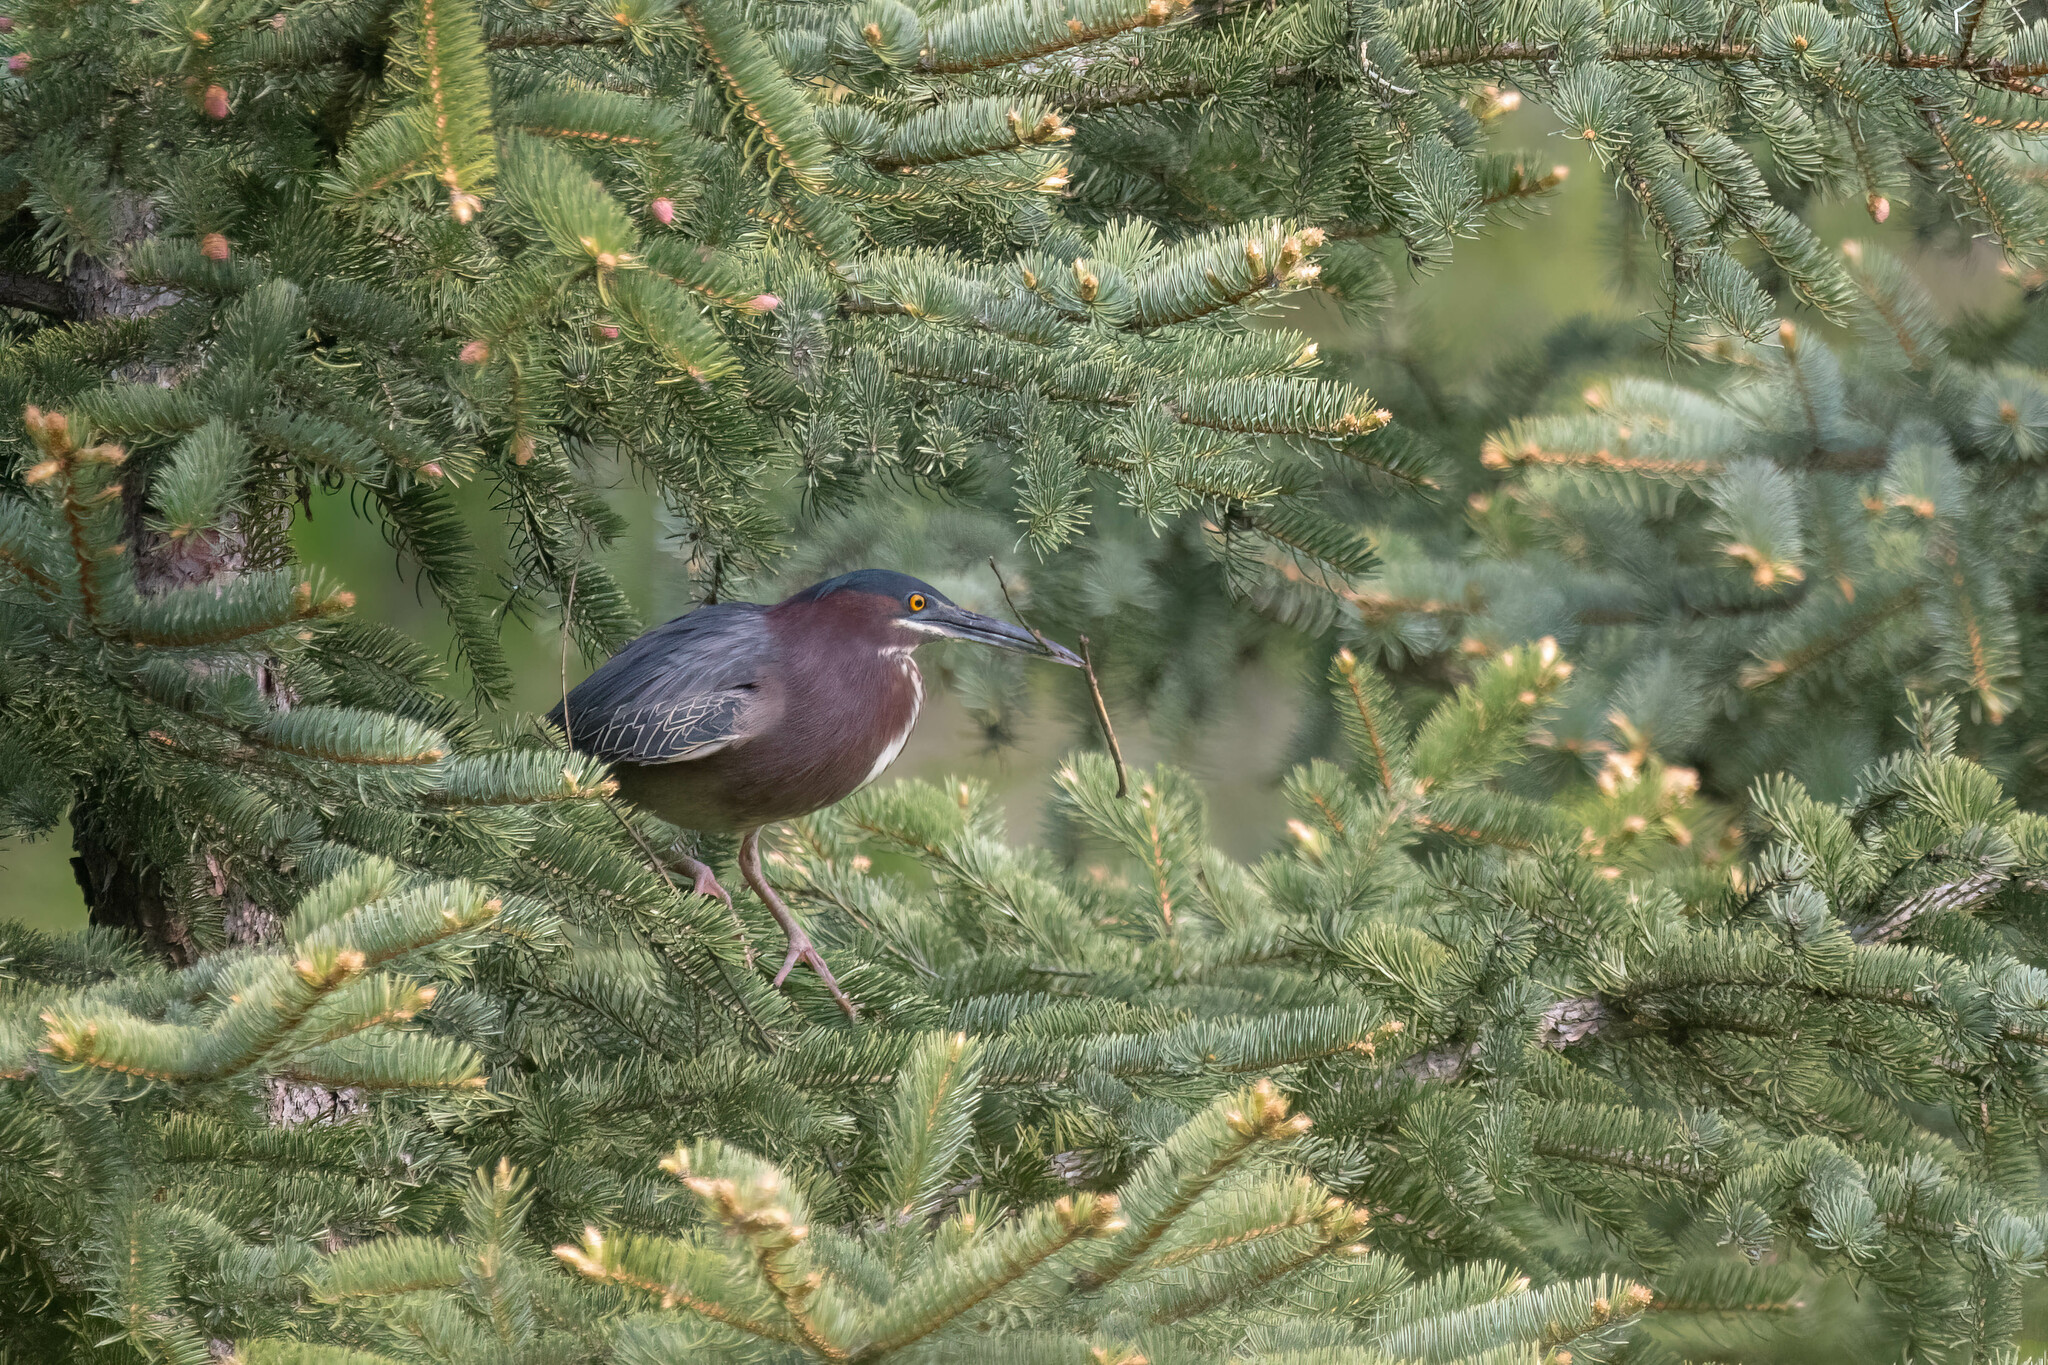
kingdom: Animalia
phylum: Chordata
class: Aves
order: Pelecaniformes
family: Ardeidae
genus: Butorides
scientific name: Butorides virescens
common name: Green heron
